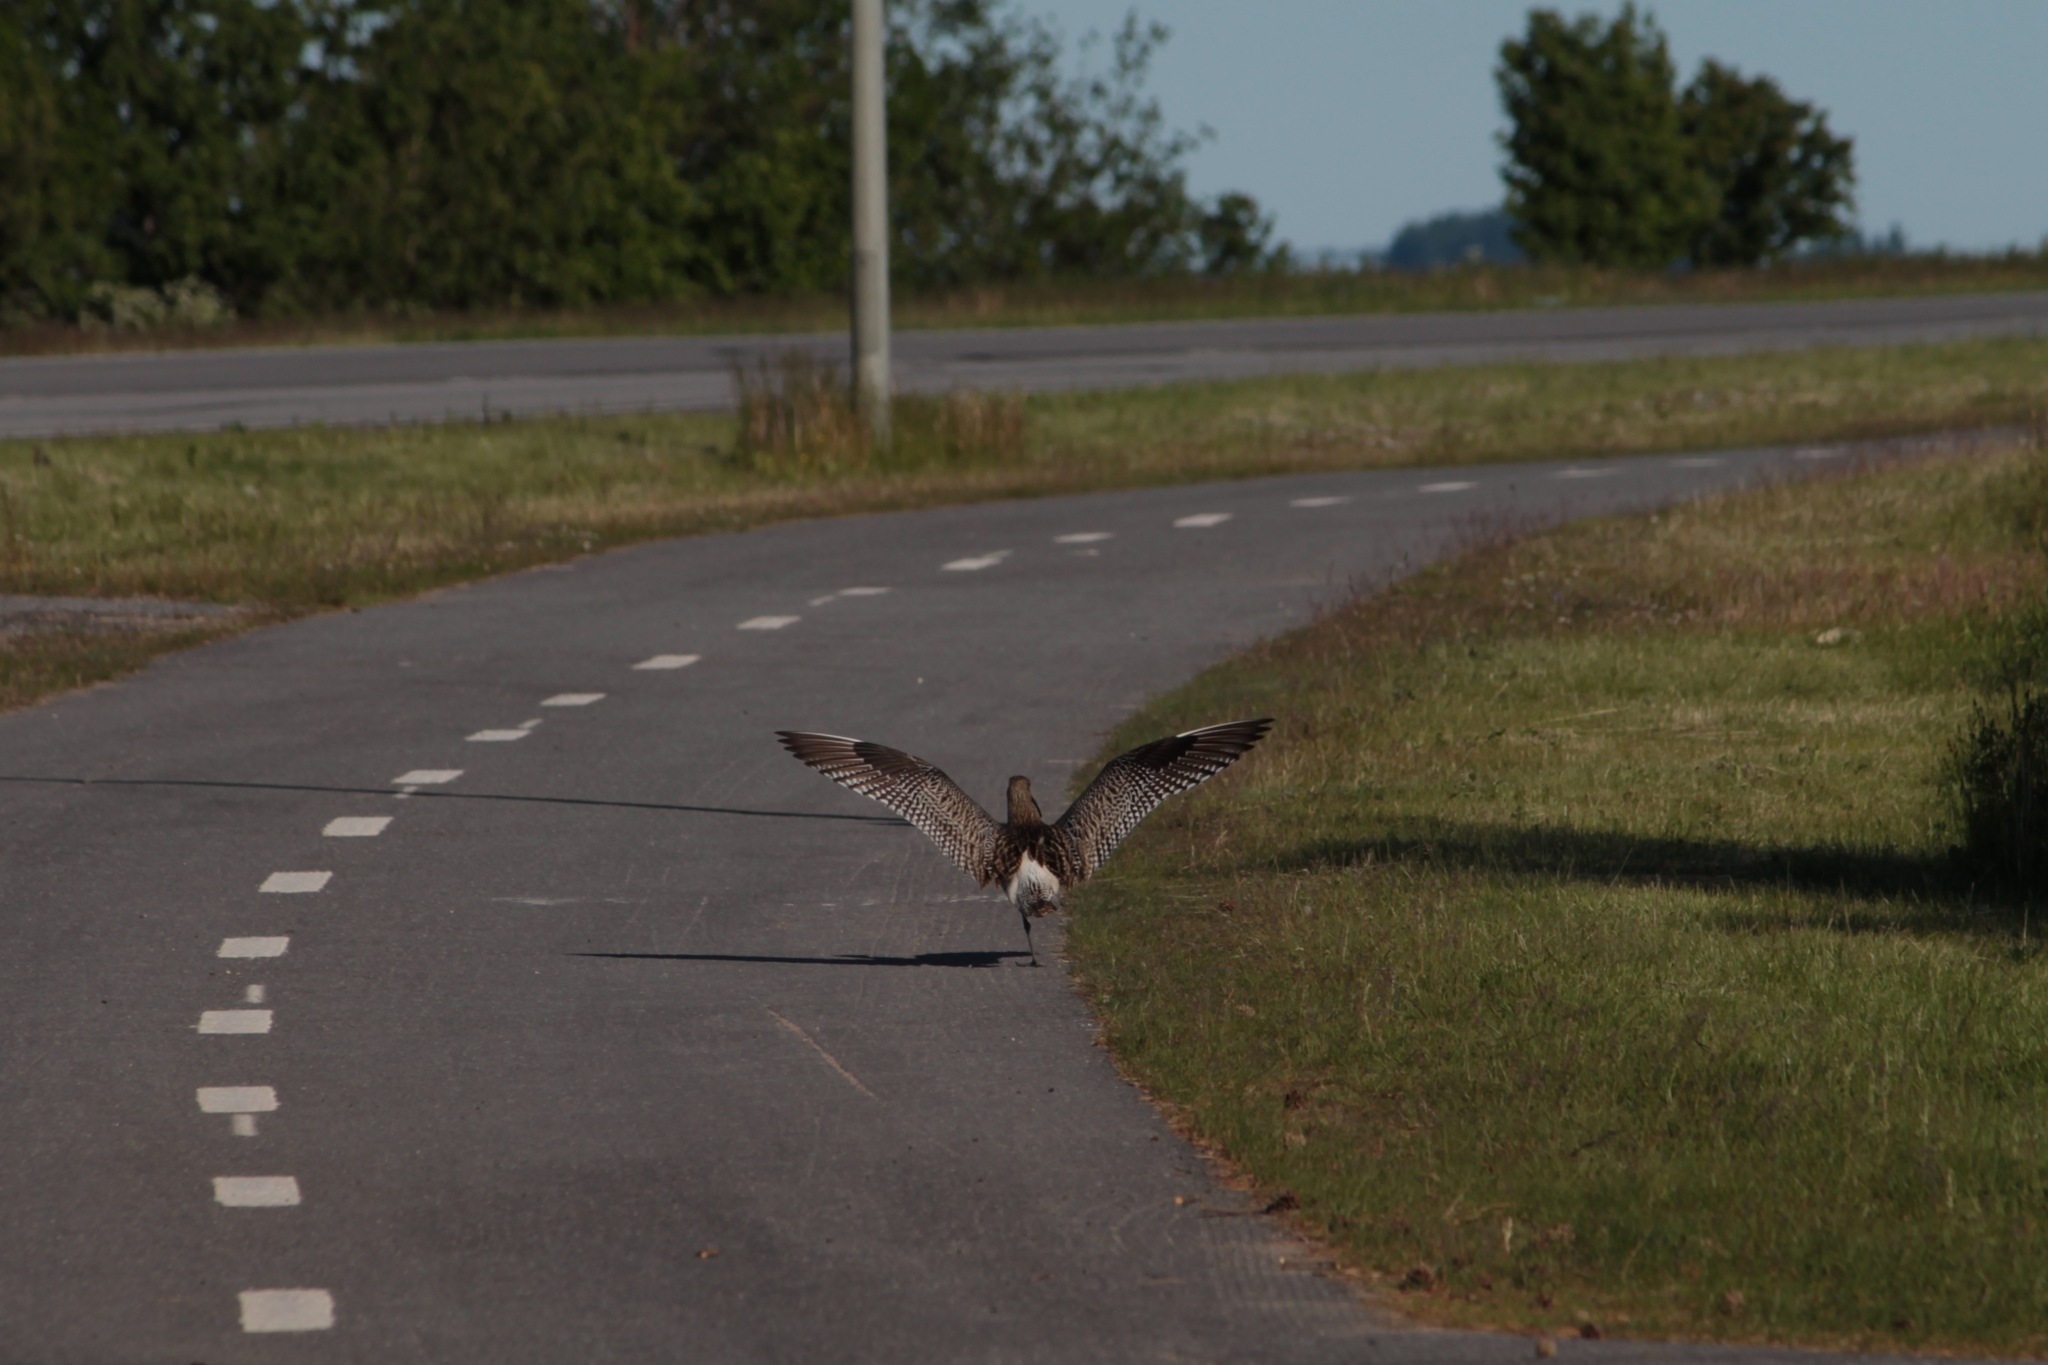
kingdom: Animalia
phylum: Chordata
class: Aves
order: Charadriiformes
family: Scolopacidae
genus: Numenius
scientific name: Numenius arquata
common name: Eurasian curlew
